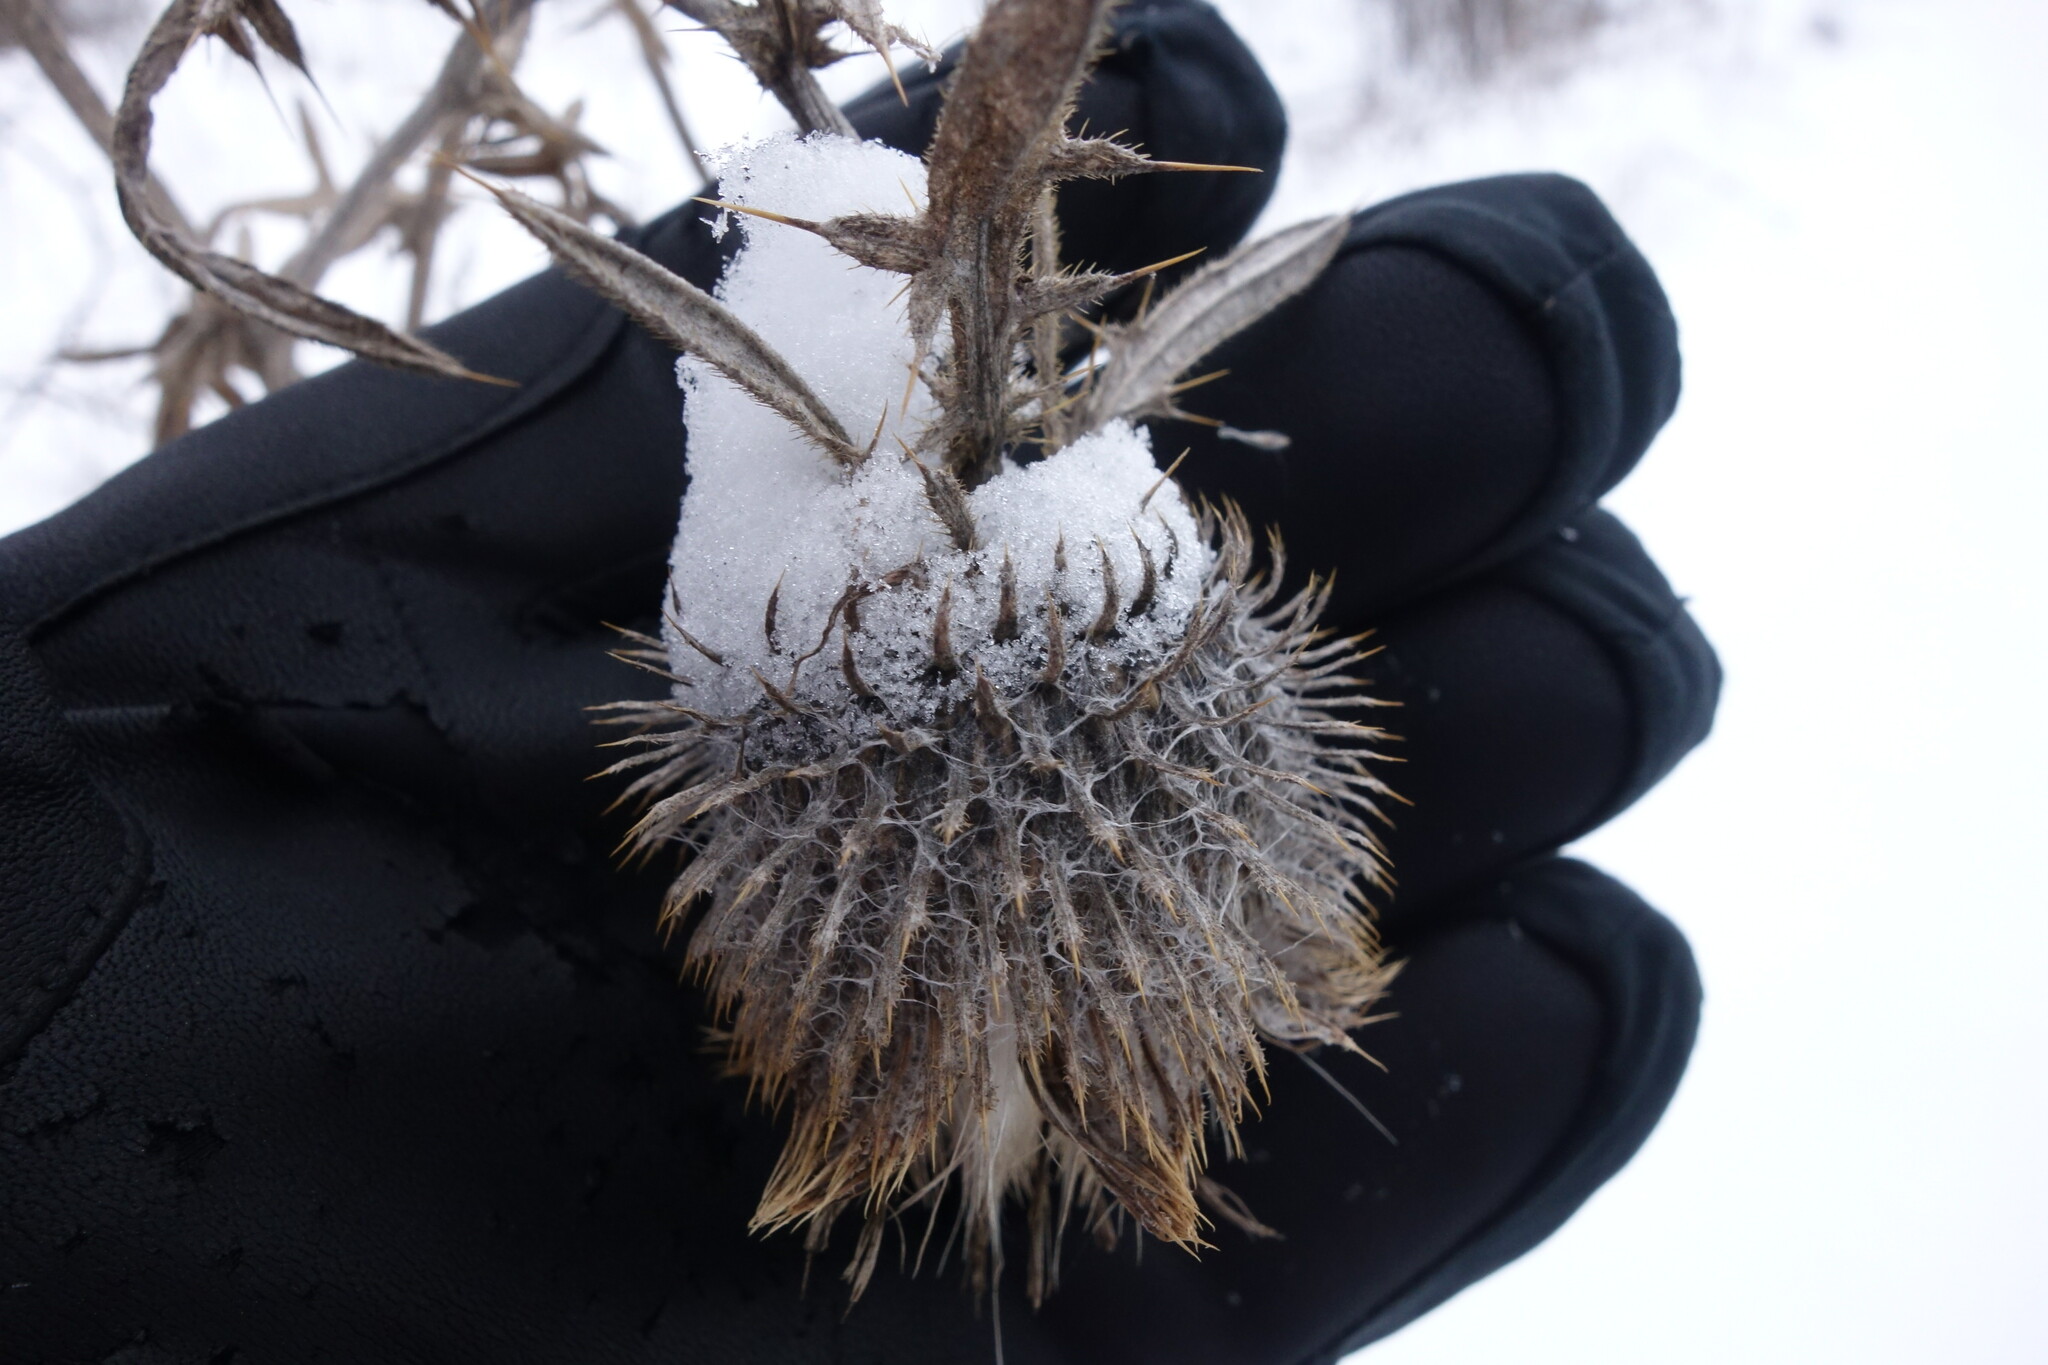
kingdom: Plantae
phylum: Tracheophyta
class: Magnoliopsida
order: Asterales
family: Asteraceae
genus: Lophiolepis
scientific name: Lophiolepis decussata
